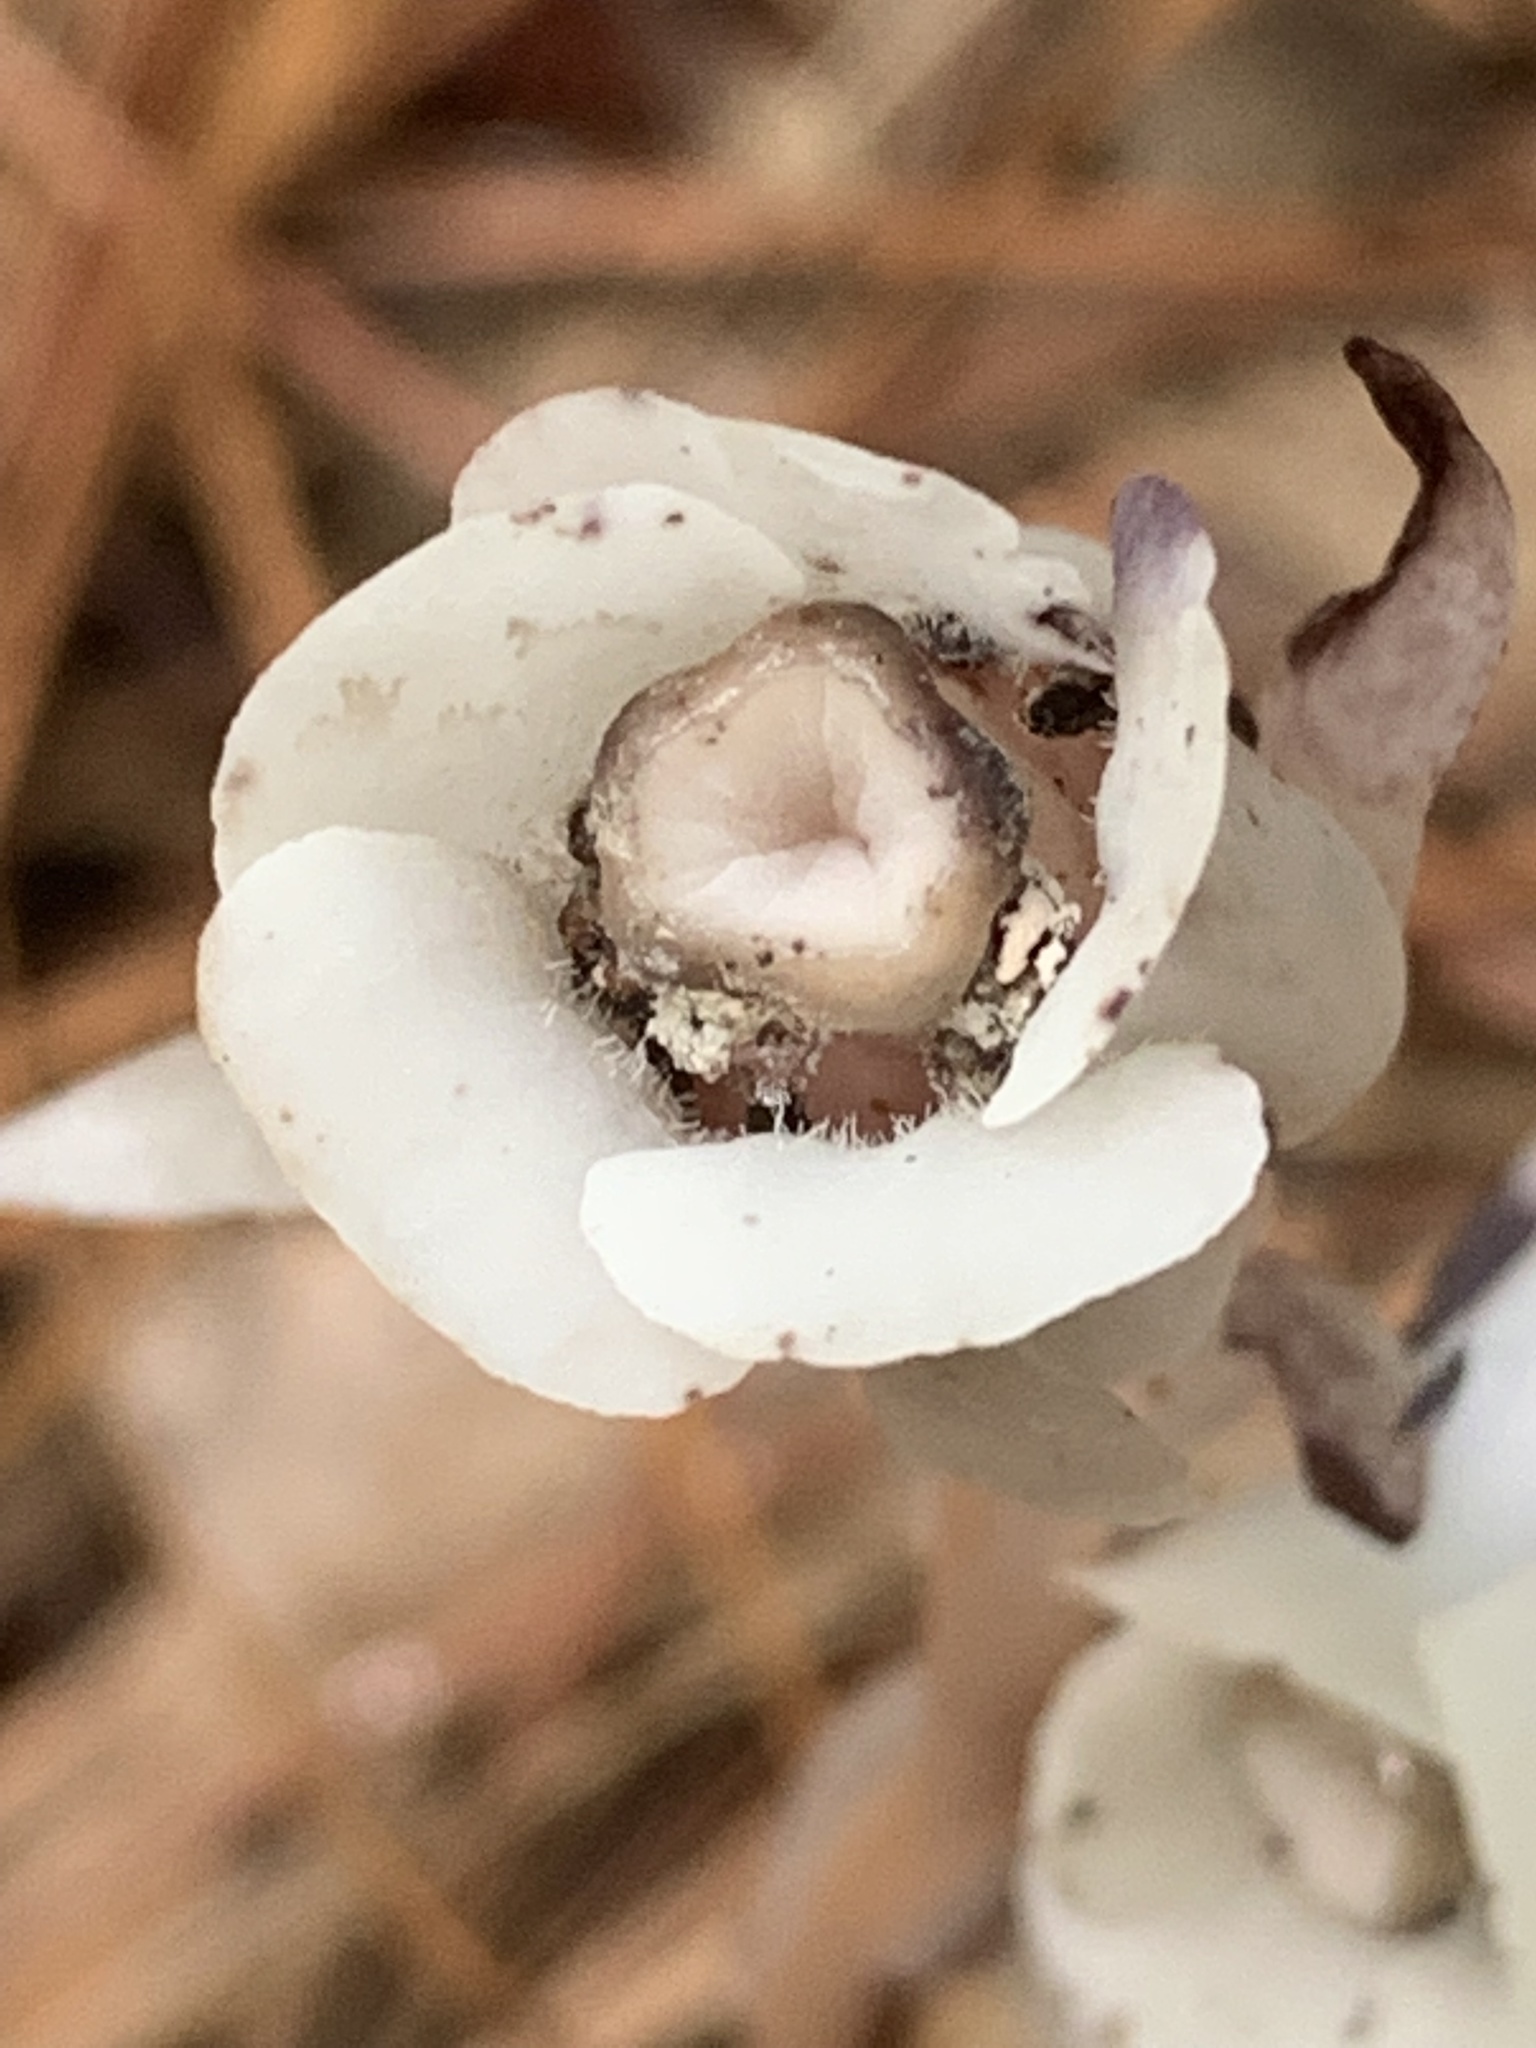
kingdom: Plantae
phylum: Tracheophyta
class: Magnoliopsida
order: Ericales
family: Ericaceae
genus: Monotropa
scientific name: Monotropa uniflora
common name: Convulsion root
